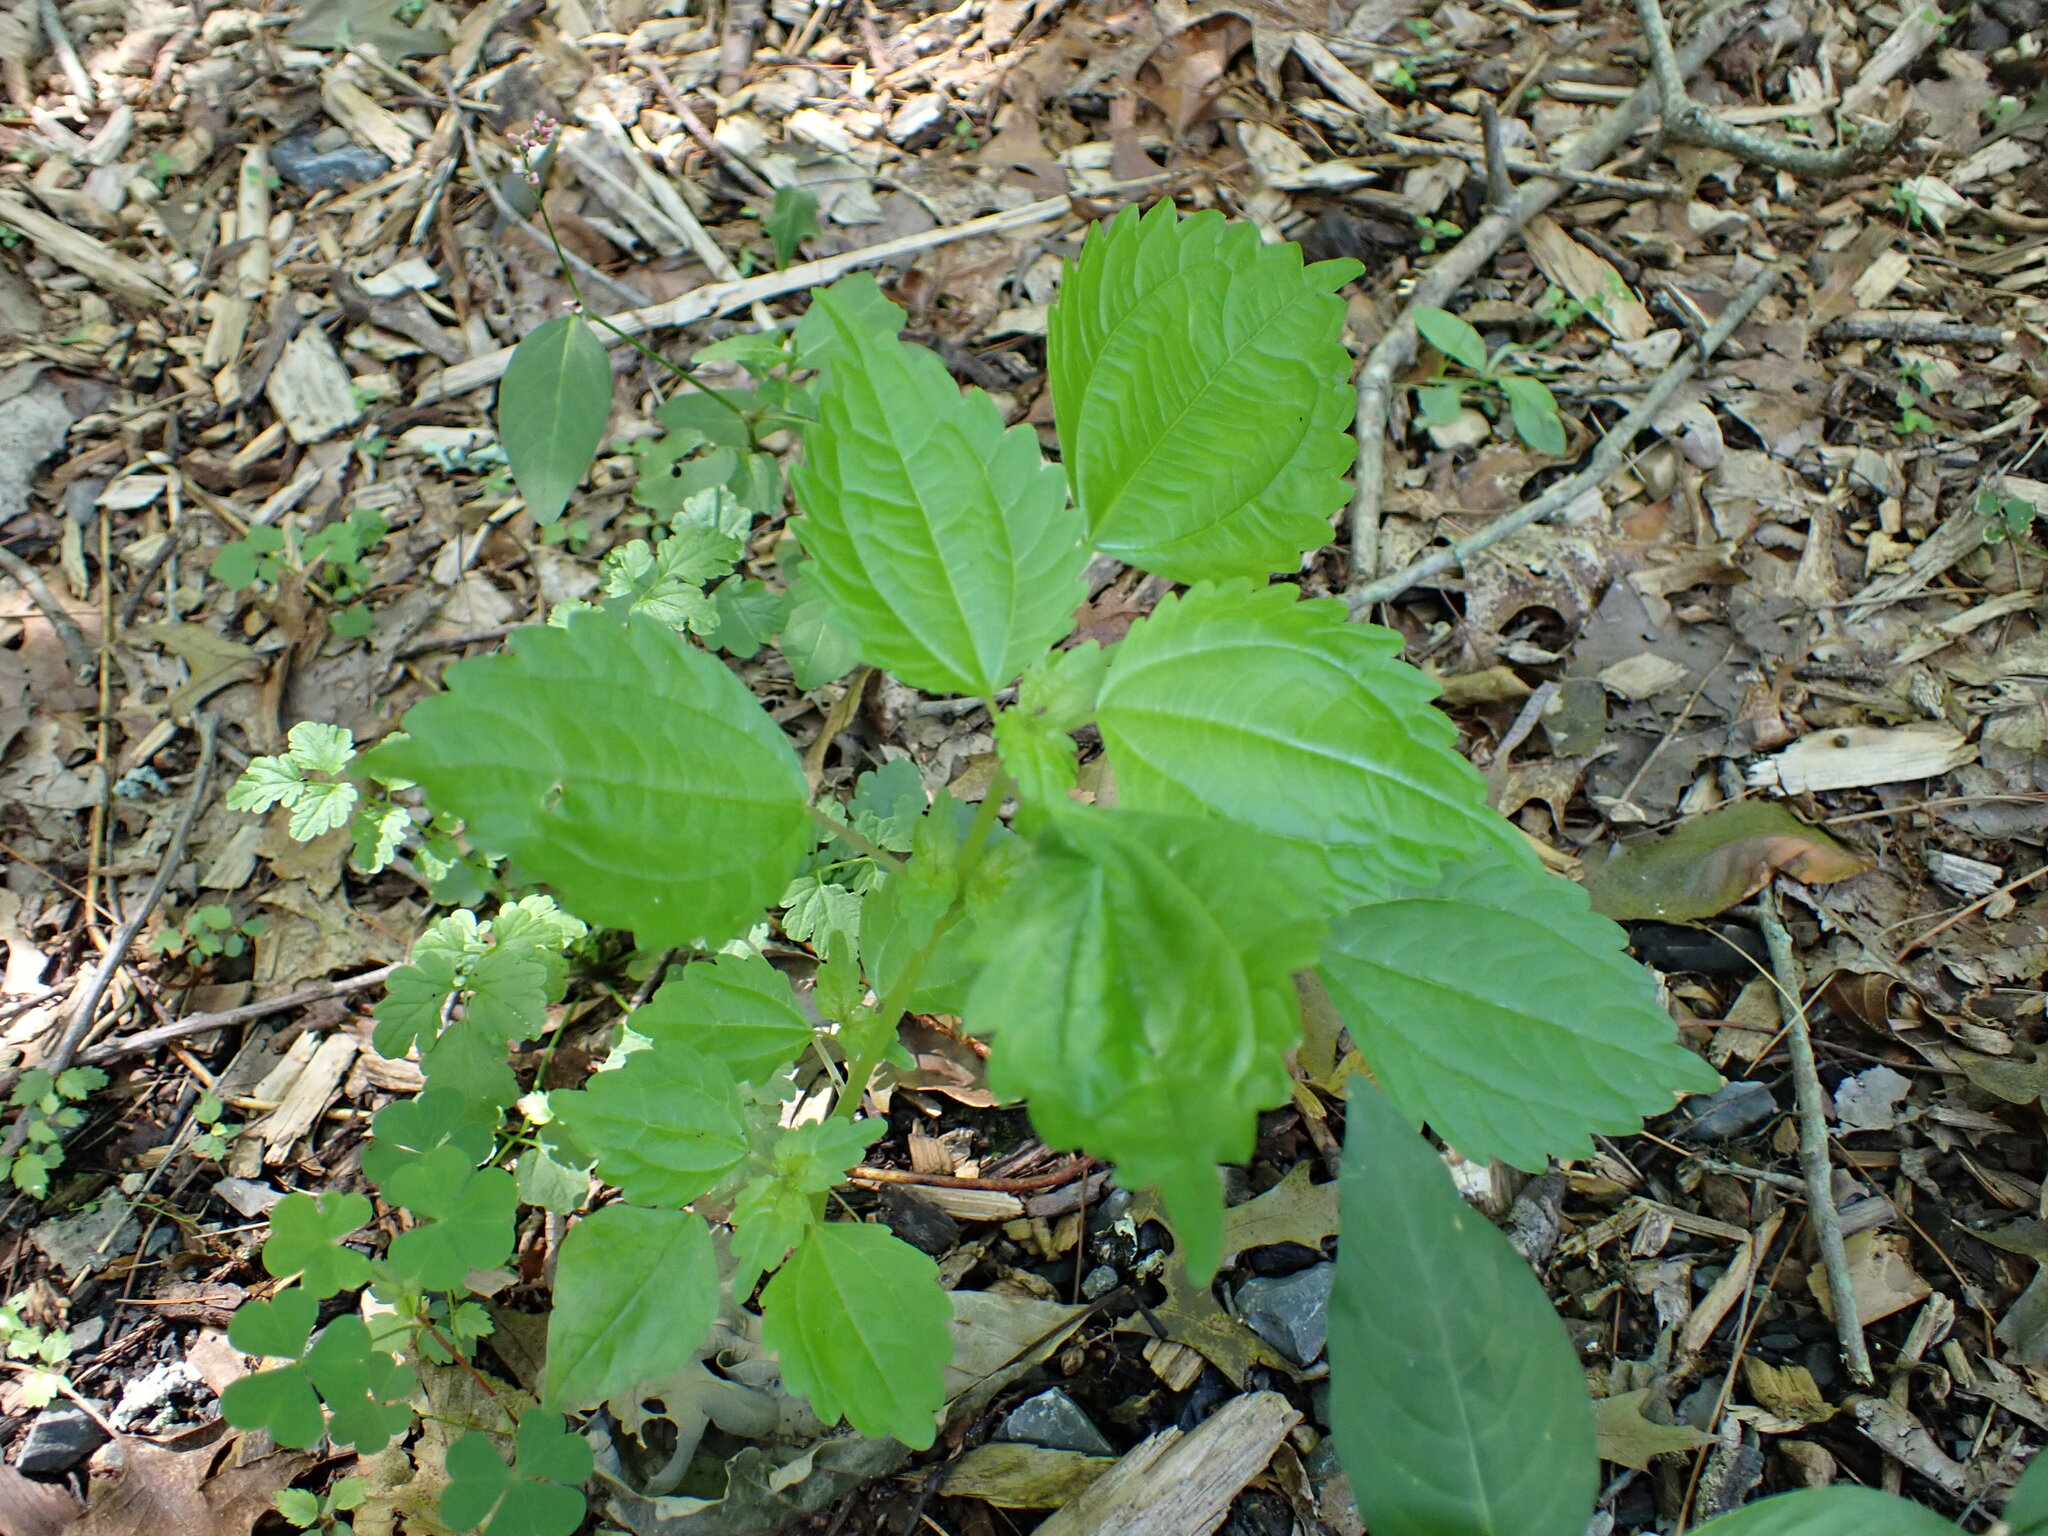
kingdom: Plantae
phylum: Tracheophyta
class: Magnoliopsida
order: Rosales
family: Urticaceae
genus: Pilea
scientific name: Pilea pumila
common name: Clearweed
